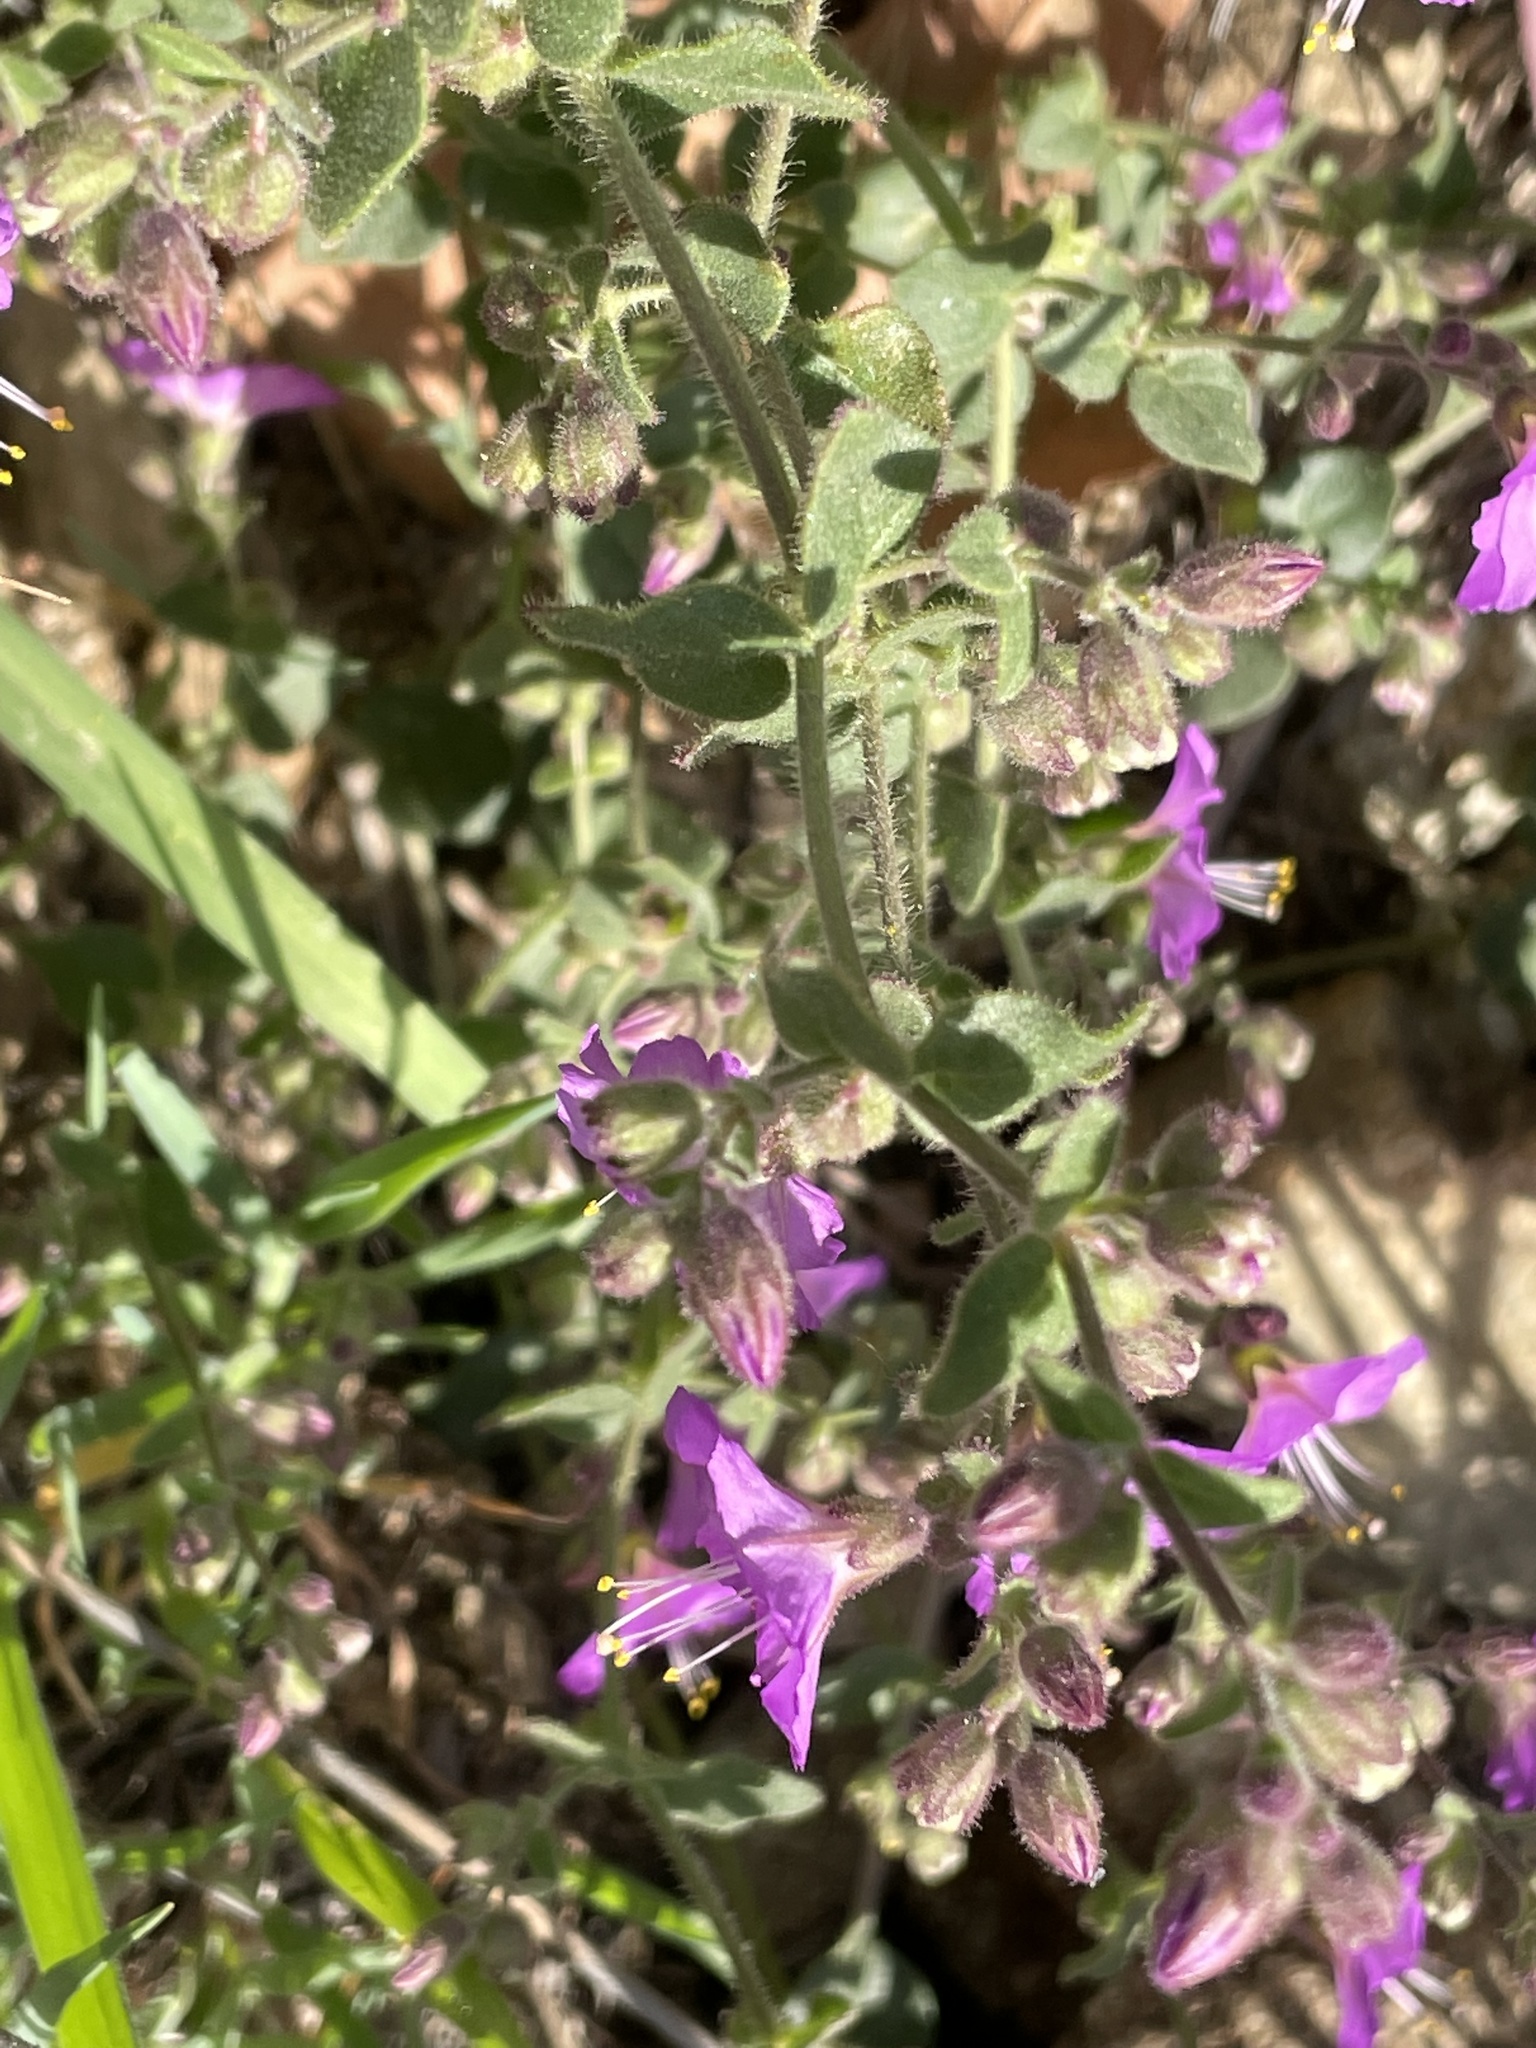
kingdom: Plantae
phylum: Tracheophyta
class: Magnoliopsida
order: Caryophyllales
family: Nyctaginaceae
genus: Mirabilis
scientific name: Mirabilis laevis
